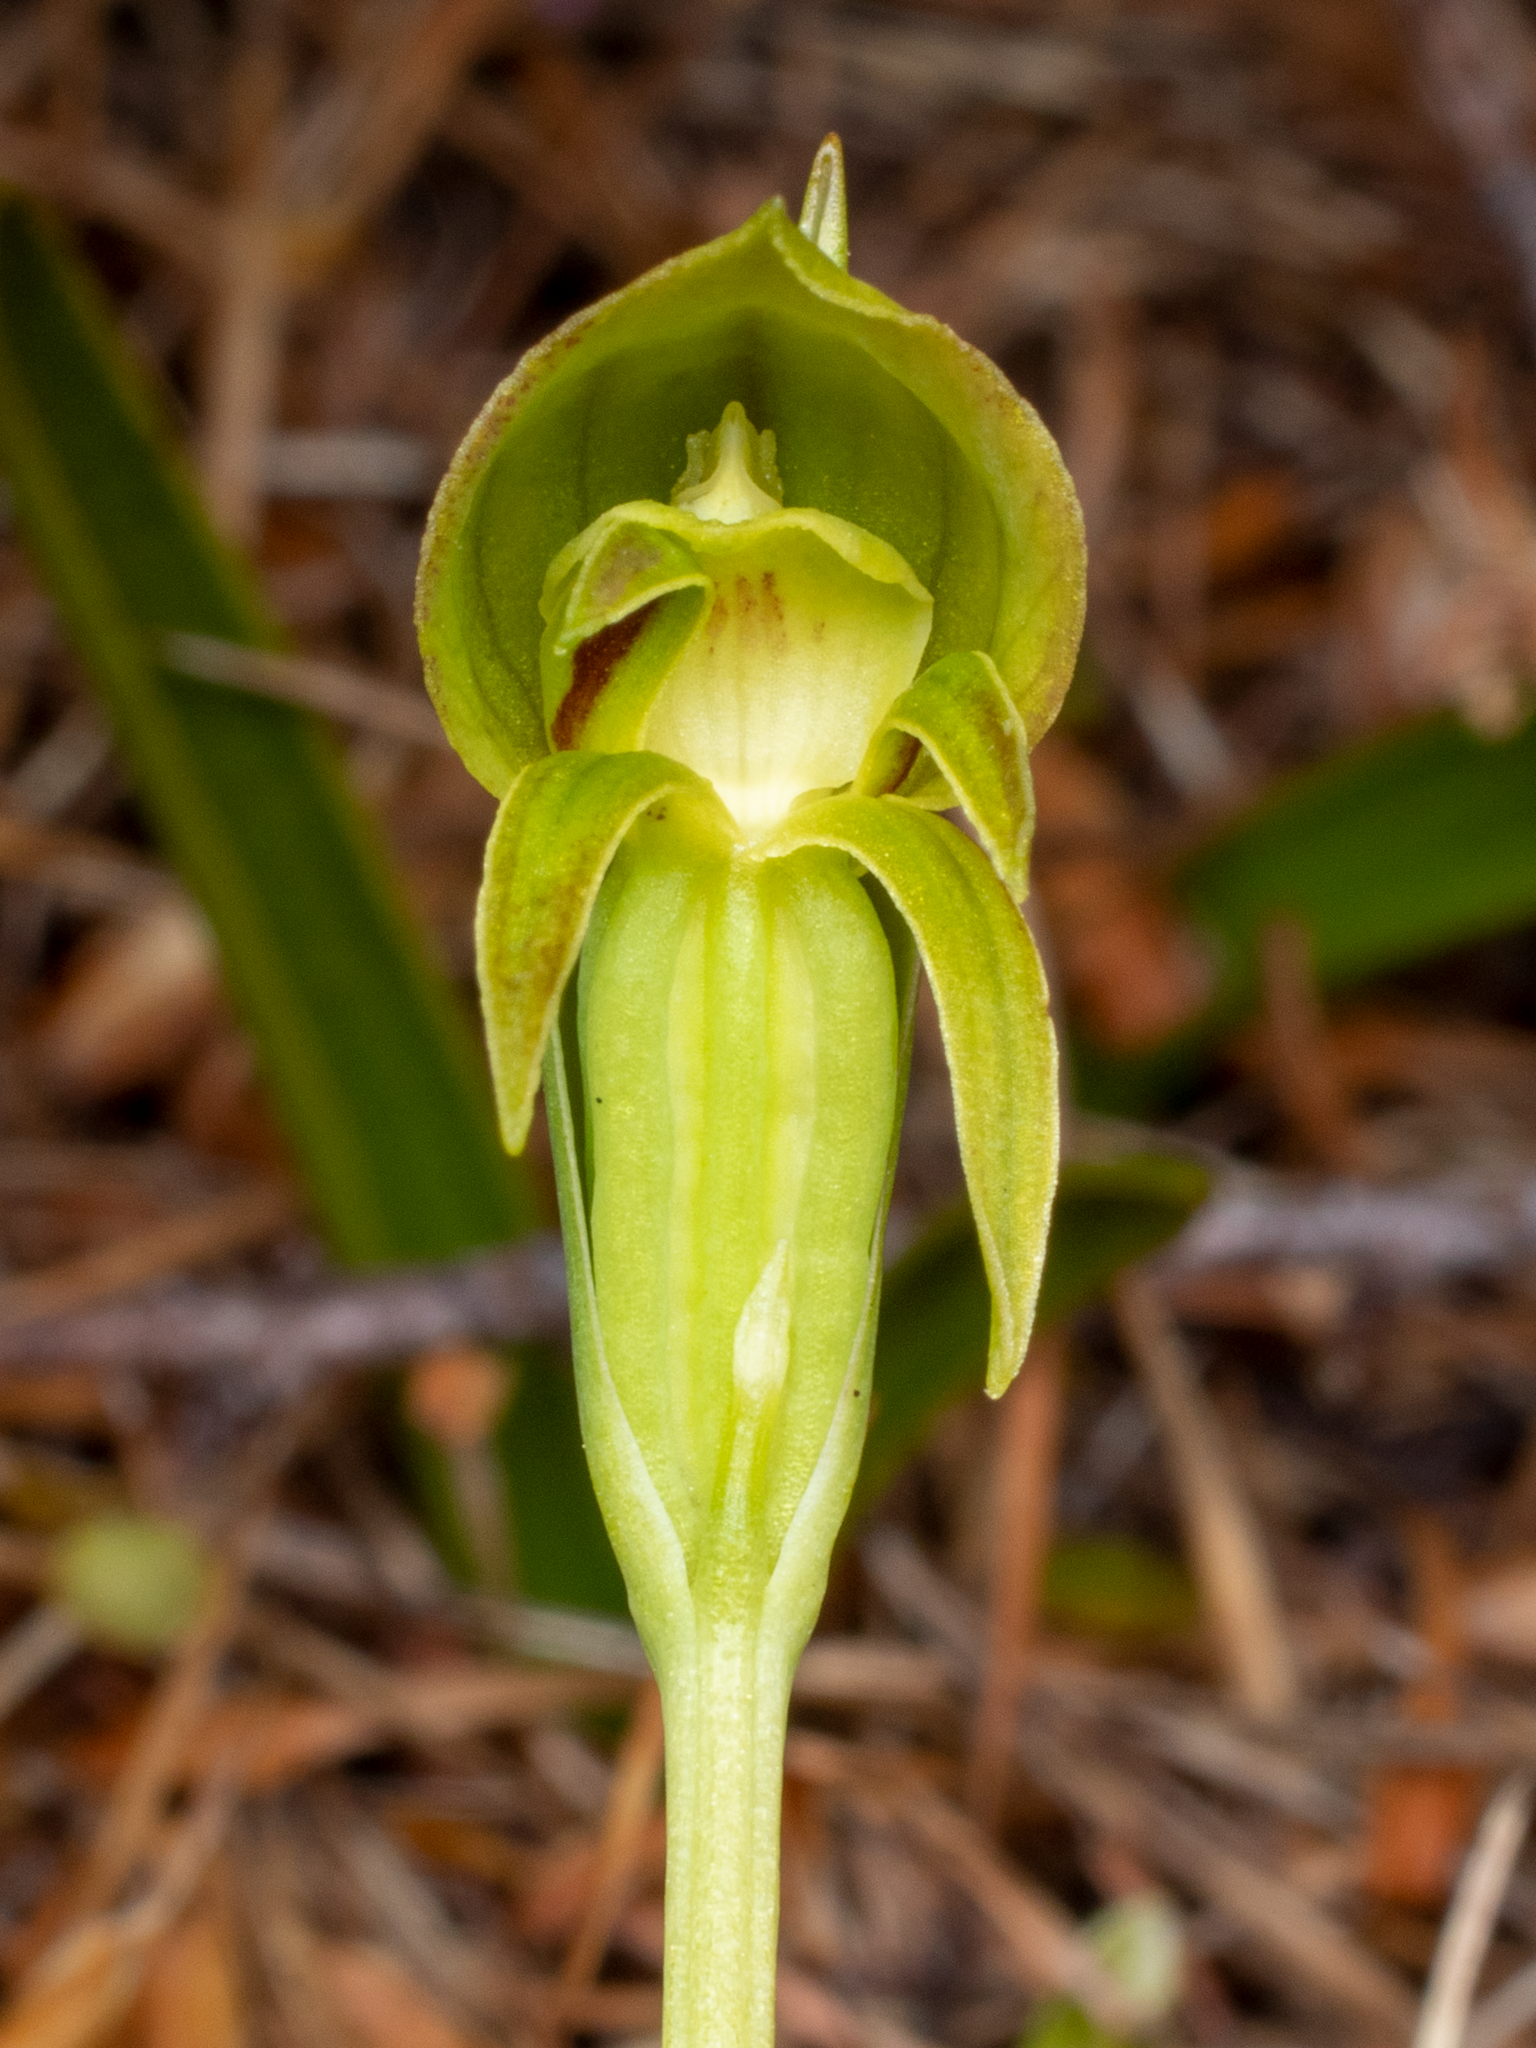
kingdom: Plantae
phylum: Tracheophyta
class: Liliopsida
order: Asparagales
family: Orchidaceae
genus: Waireia
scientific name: Waireia stenopetala
